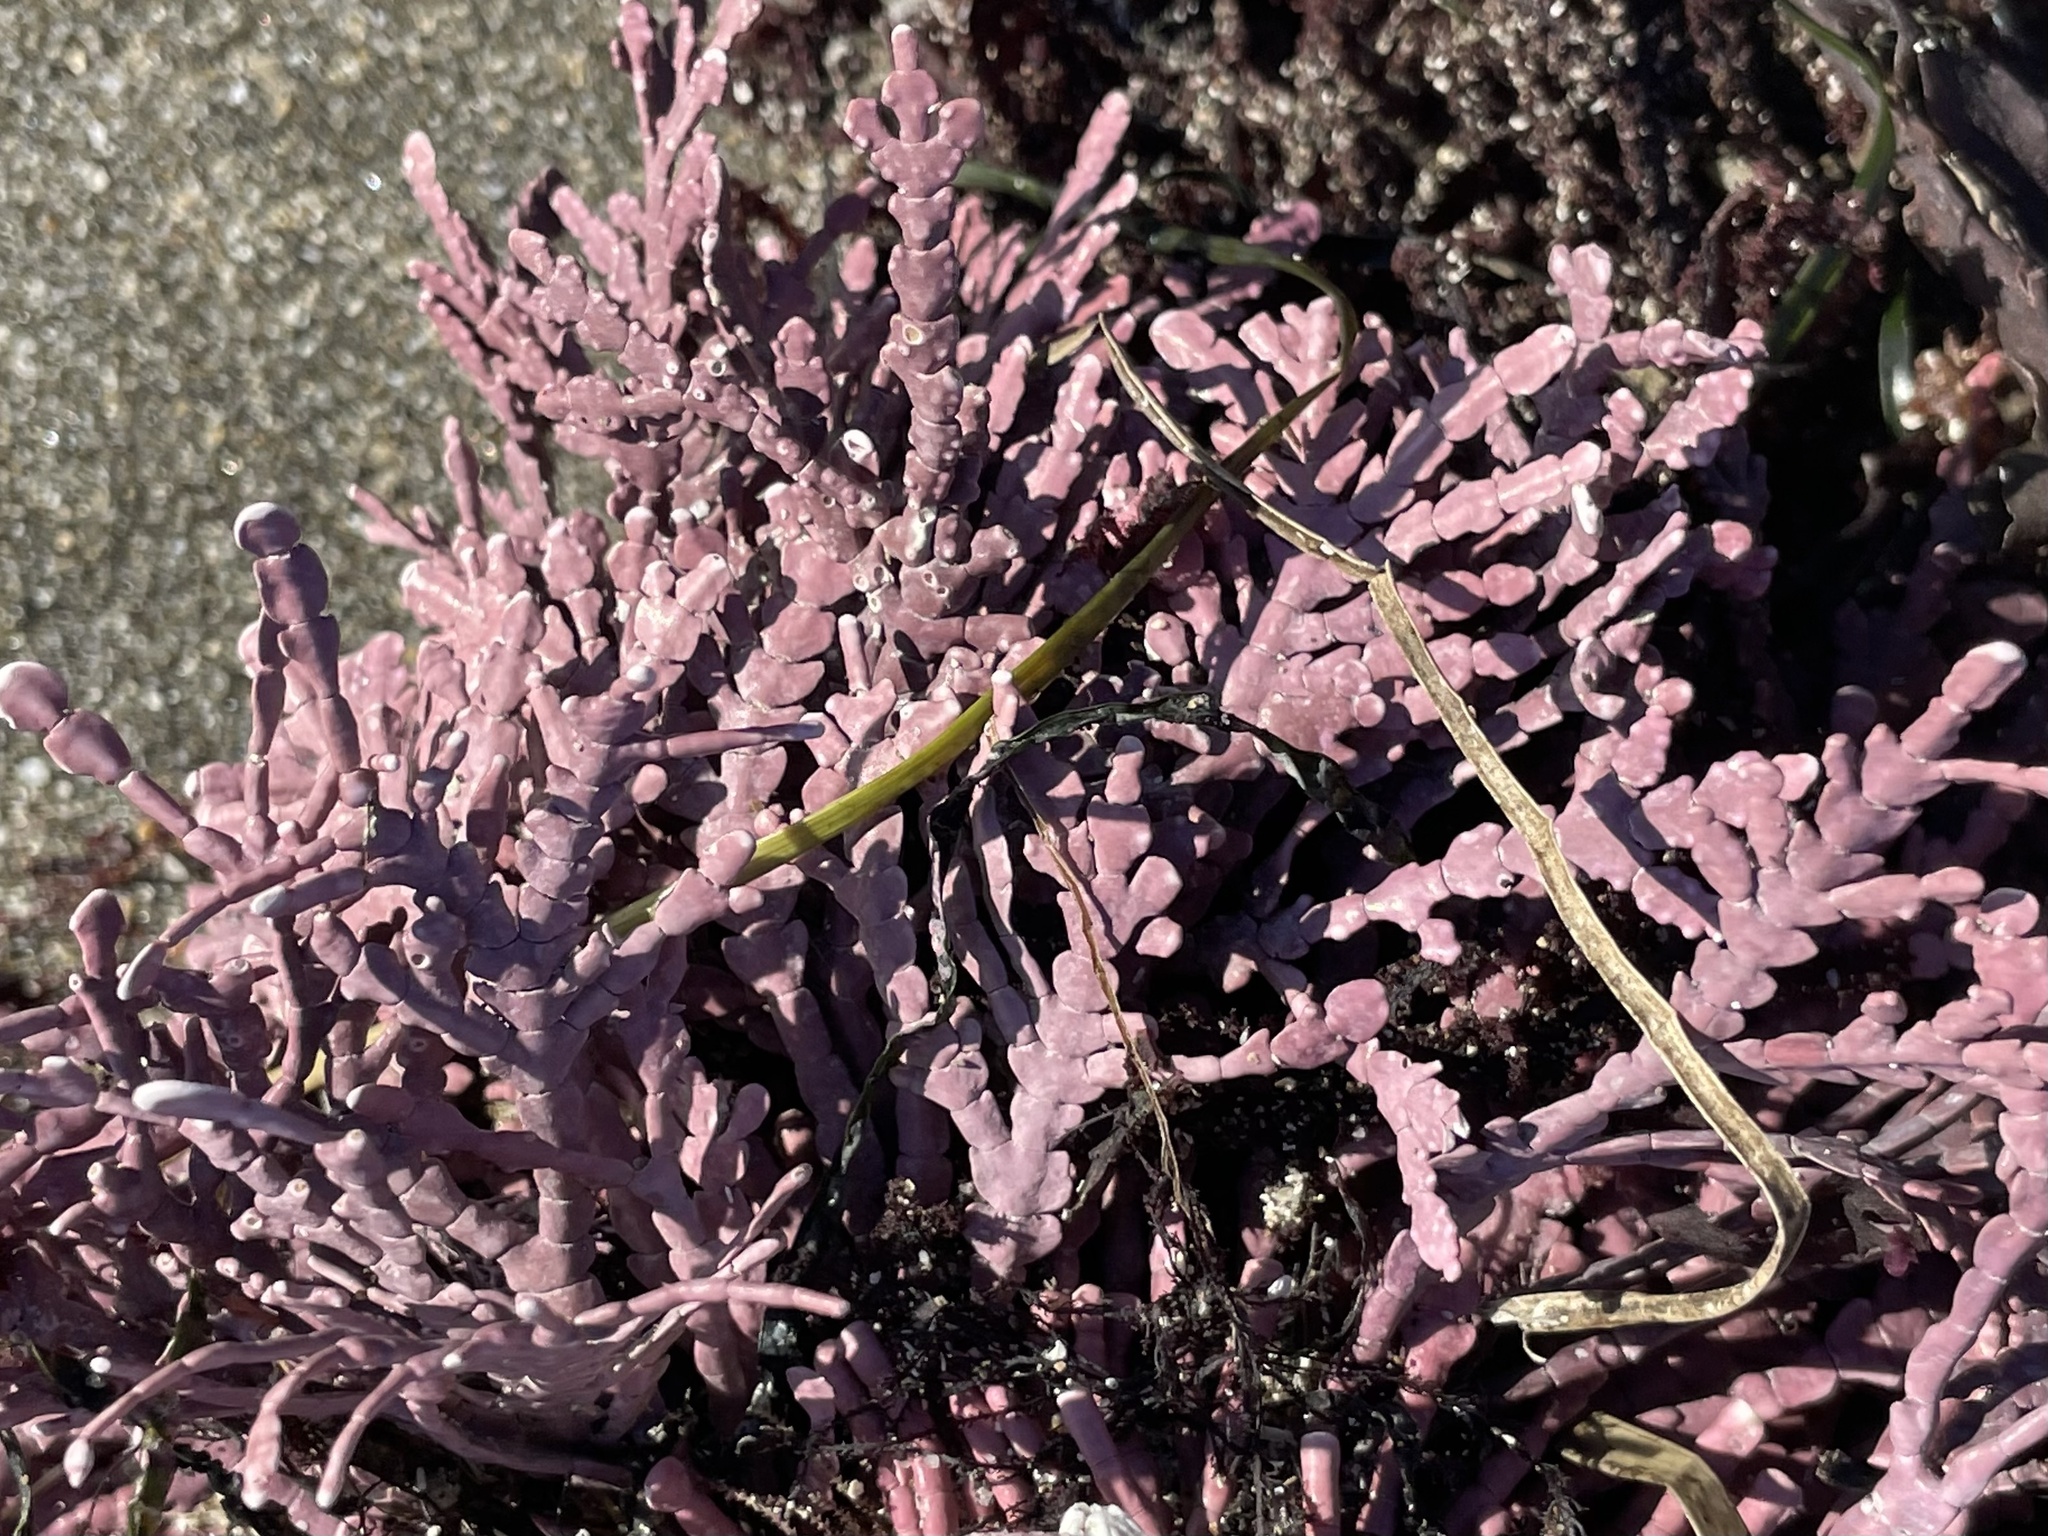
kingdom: Plantae
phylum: Rhodophyta
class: Florideophyceae
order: Corallinales
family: Corallinaceae
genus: Calliarthron
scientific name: Calliarthron tuberculosum
